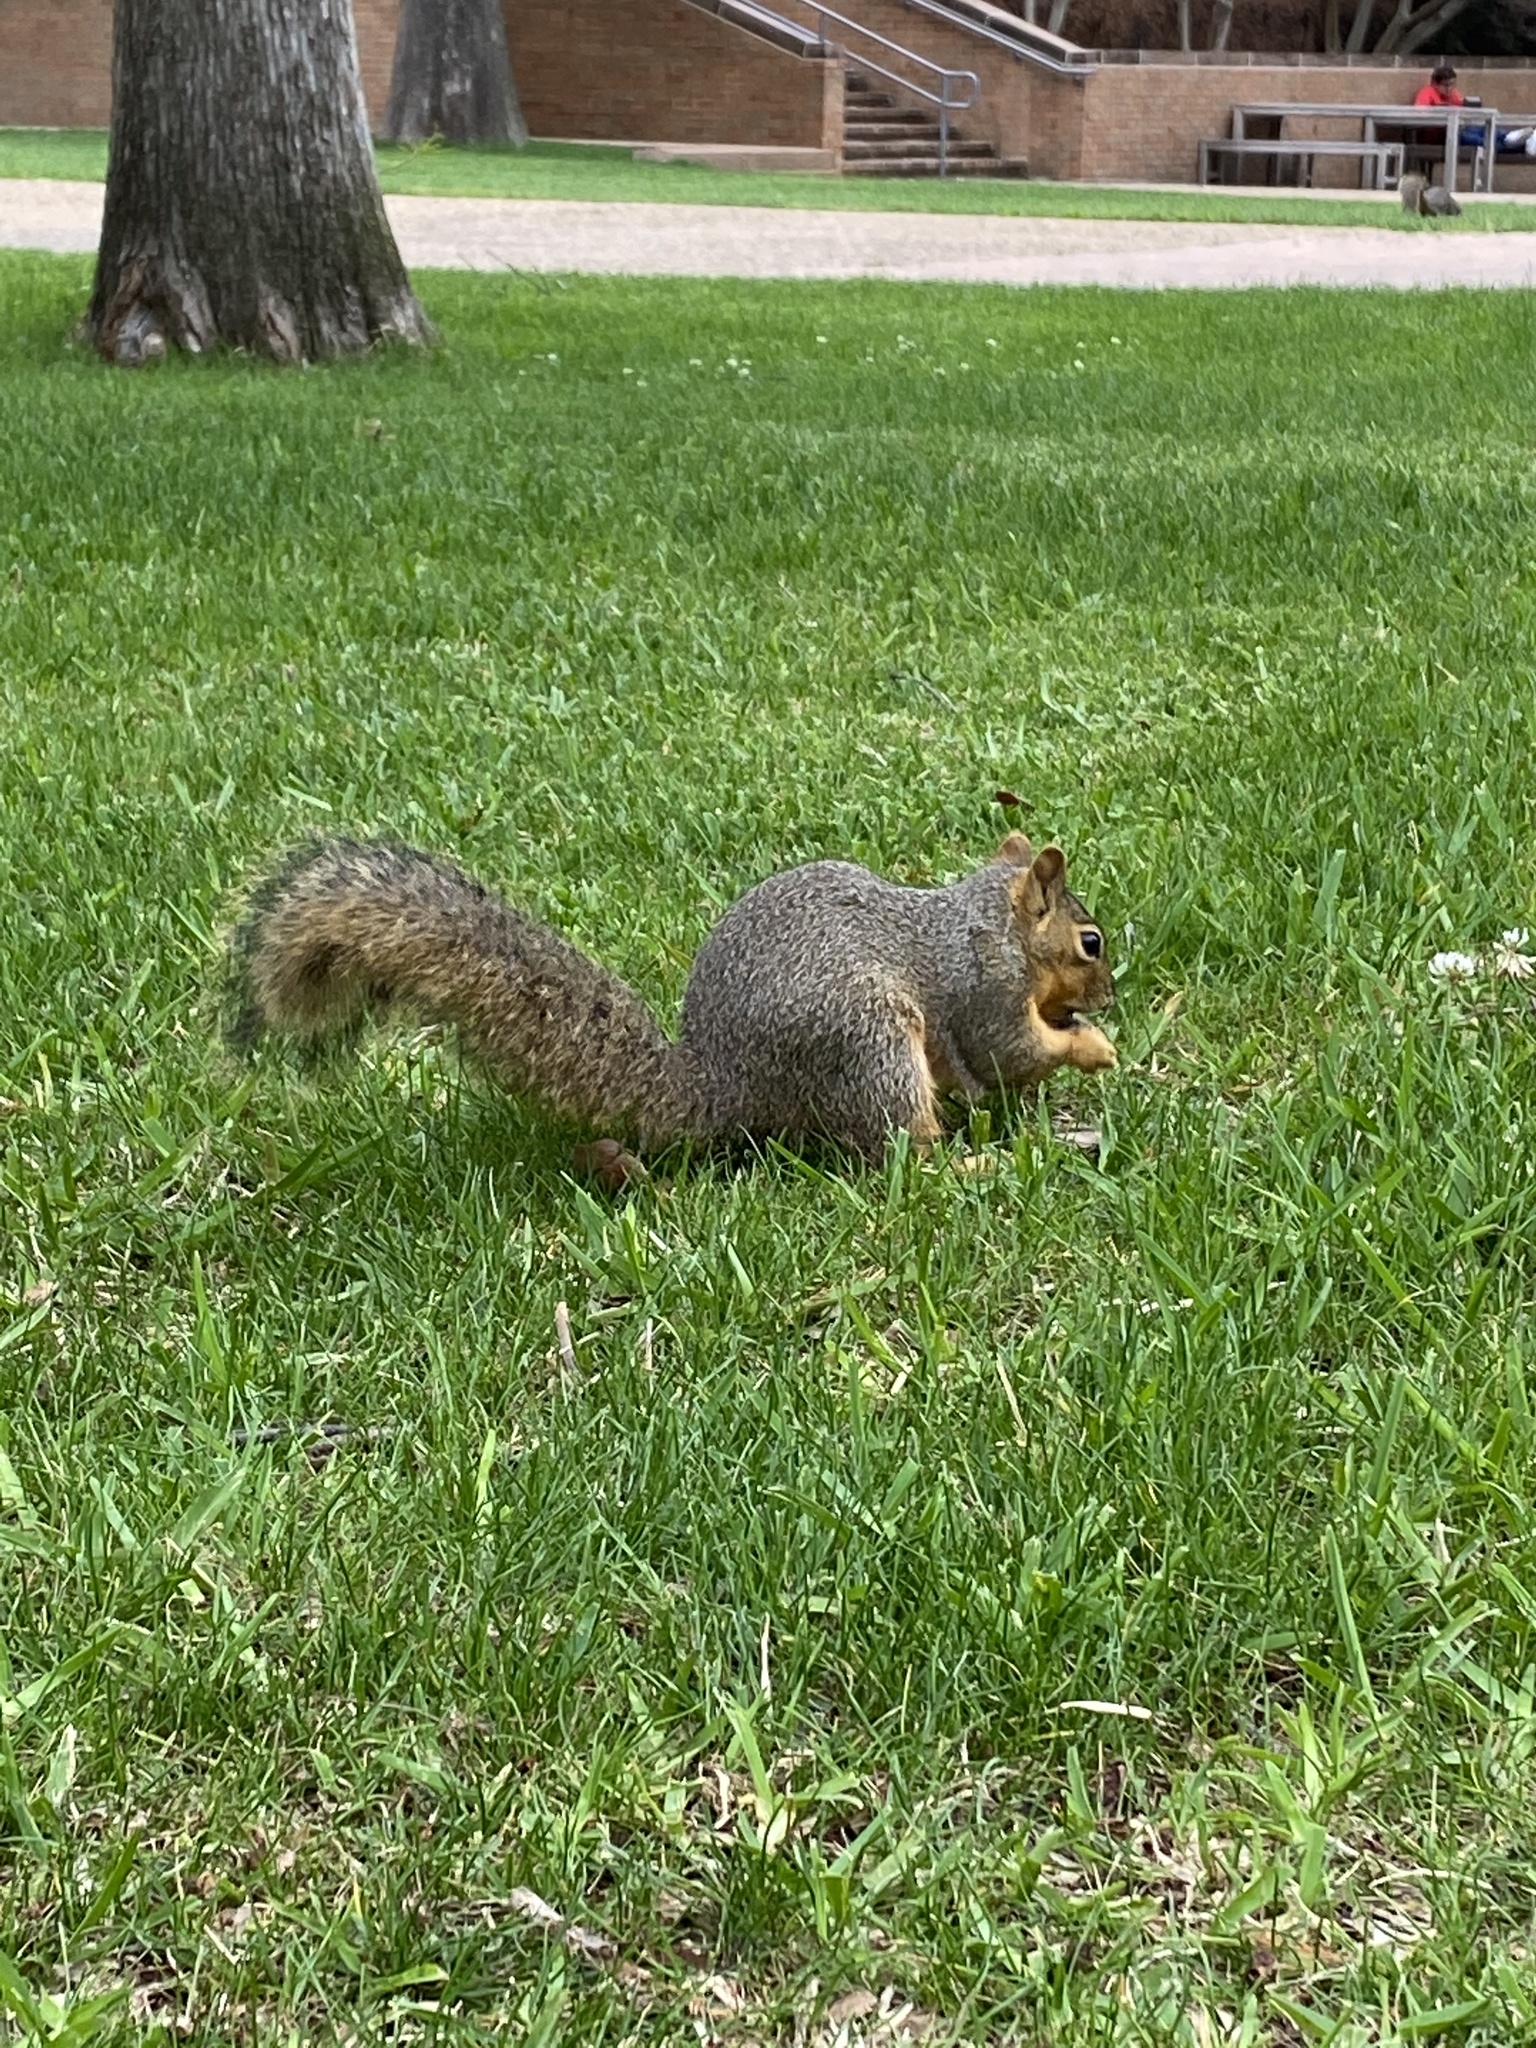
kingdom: Animalia
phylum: Chordata
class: Mammalia
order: Rodentia
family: Sciuridae
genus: Sciurus
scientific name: Sciurus niger
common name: Fox squirrel
